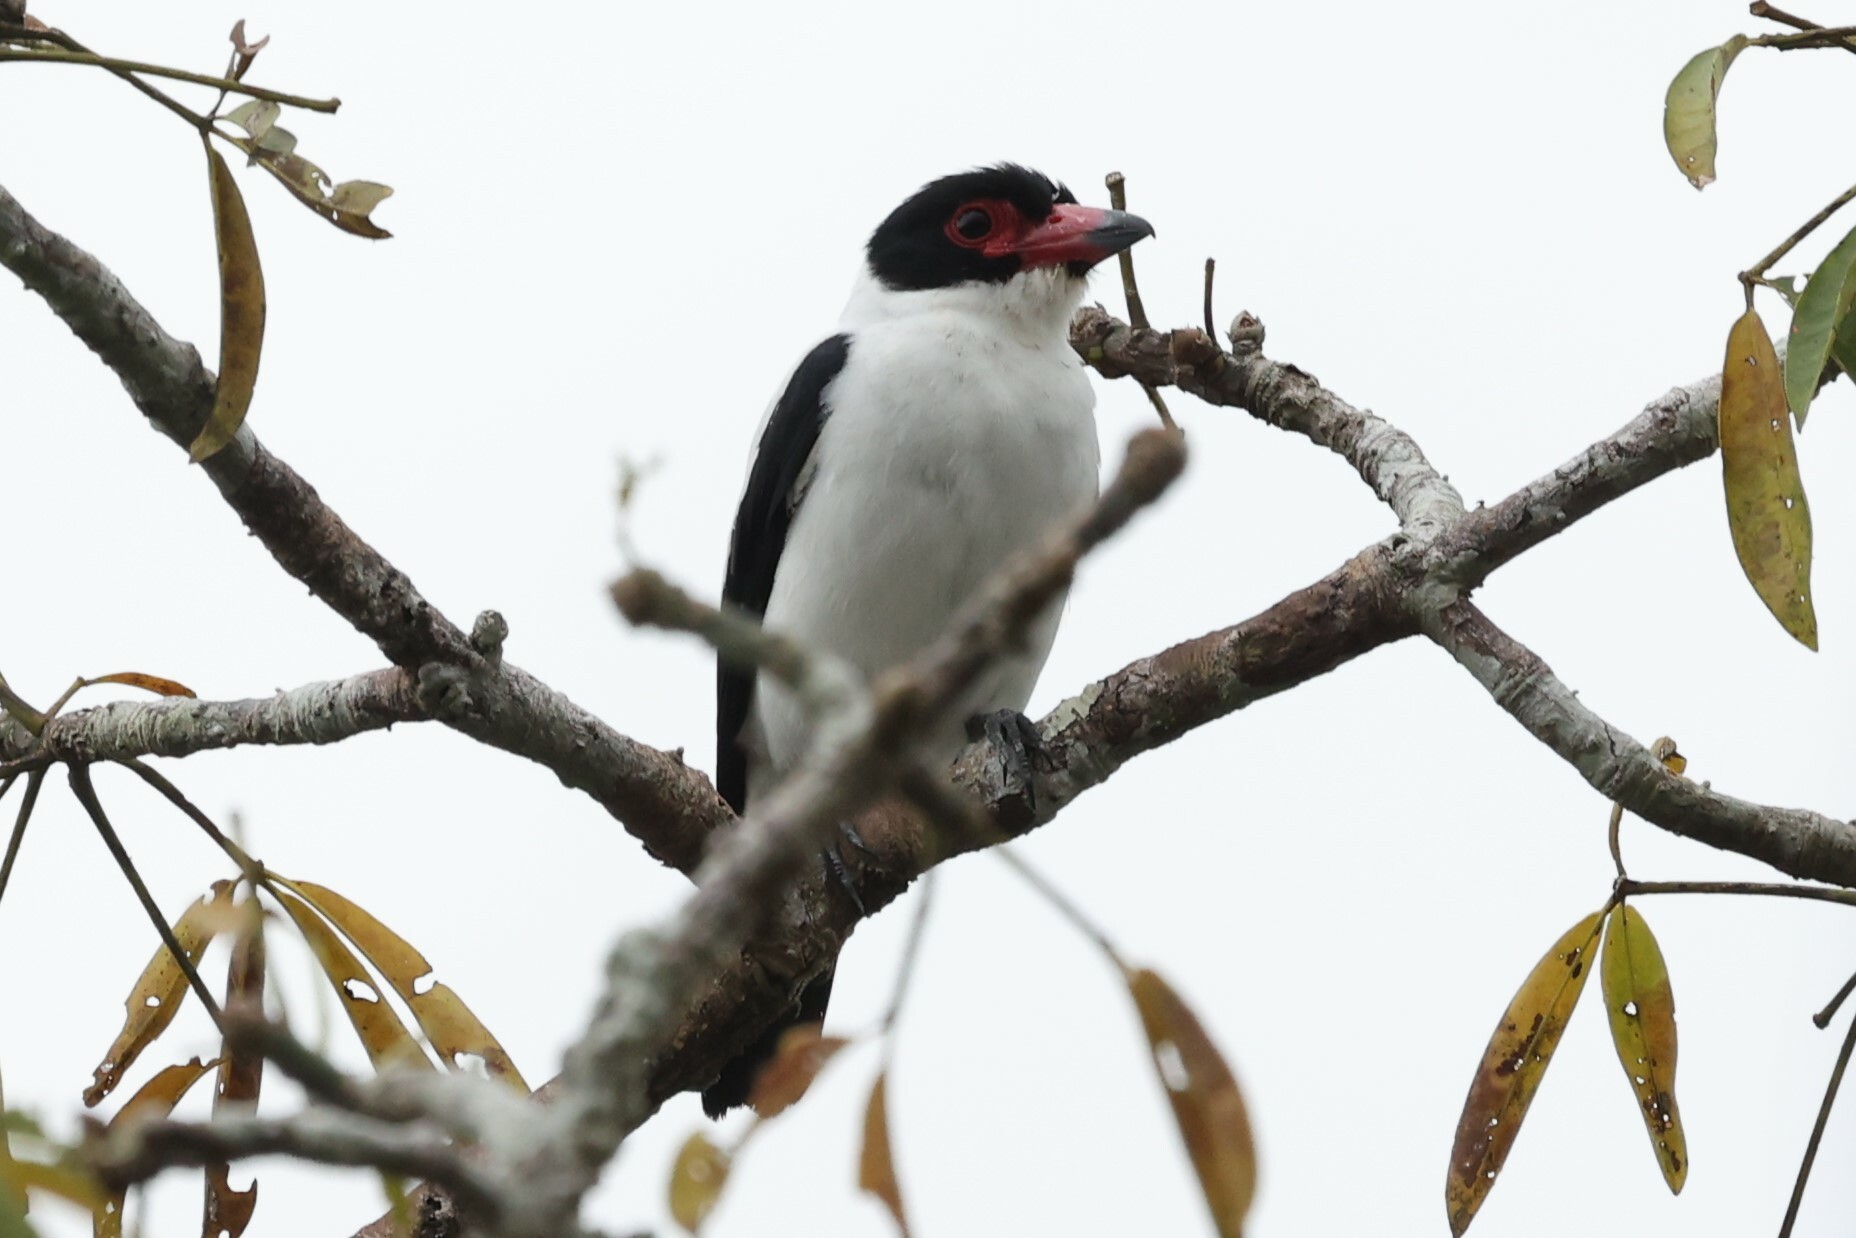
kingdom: Animalia
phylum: Chordata
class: Aves
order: Passeriformes
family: Cotingidae
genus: Tityra
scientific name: Tityra cayana
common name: Black-tailed tityra
